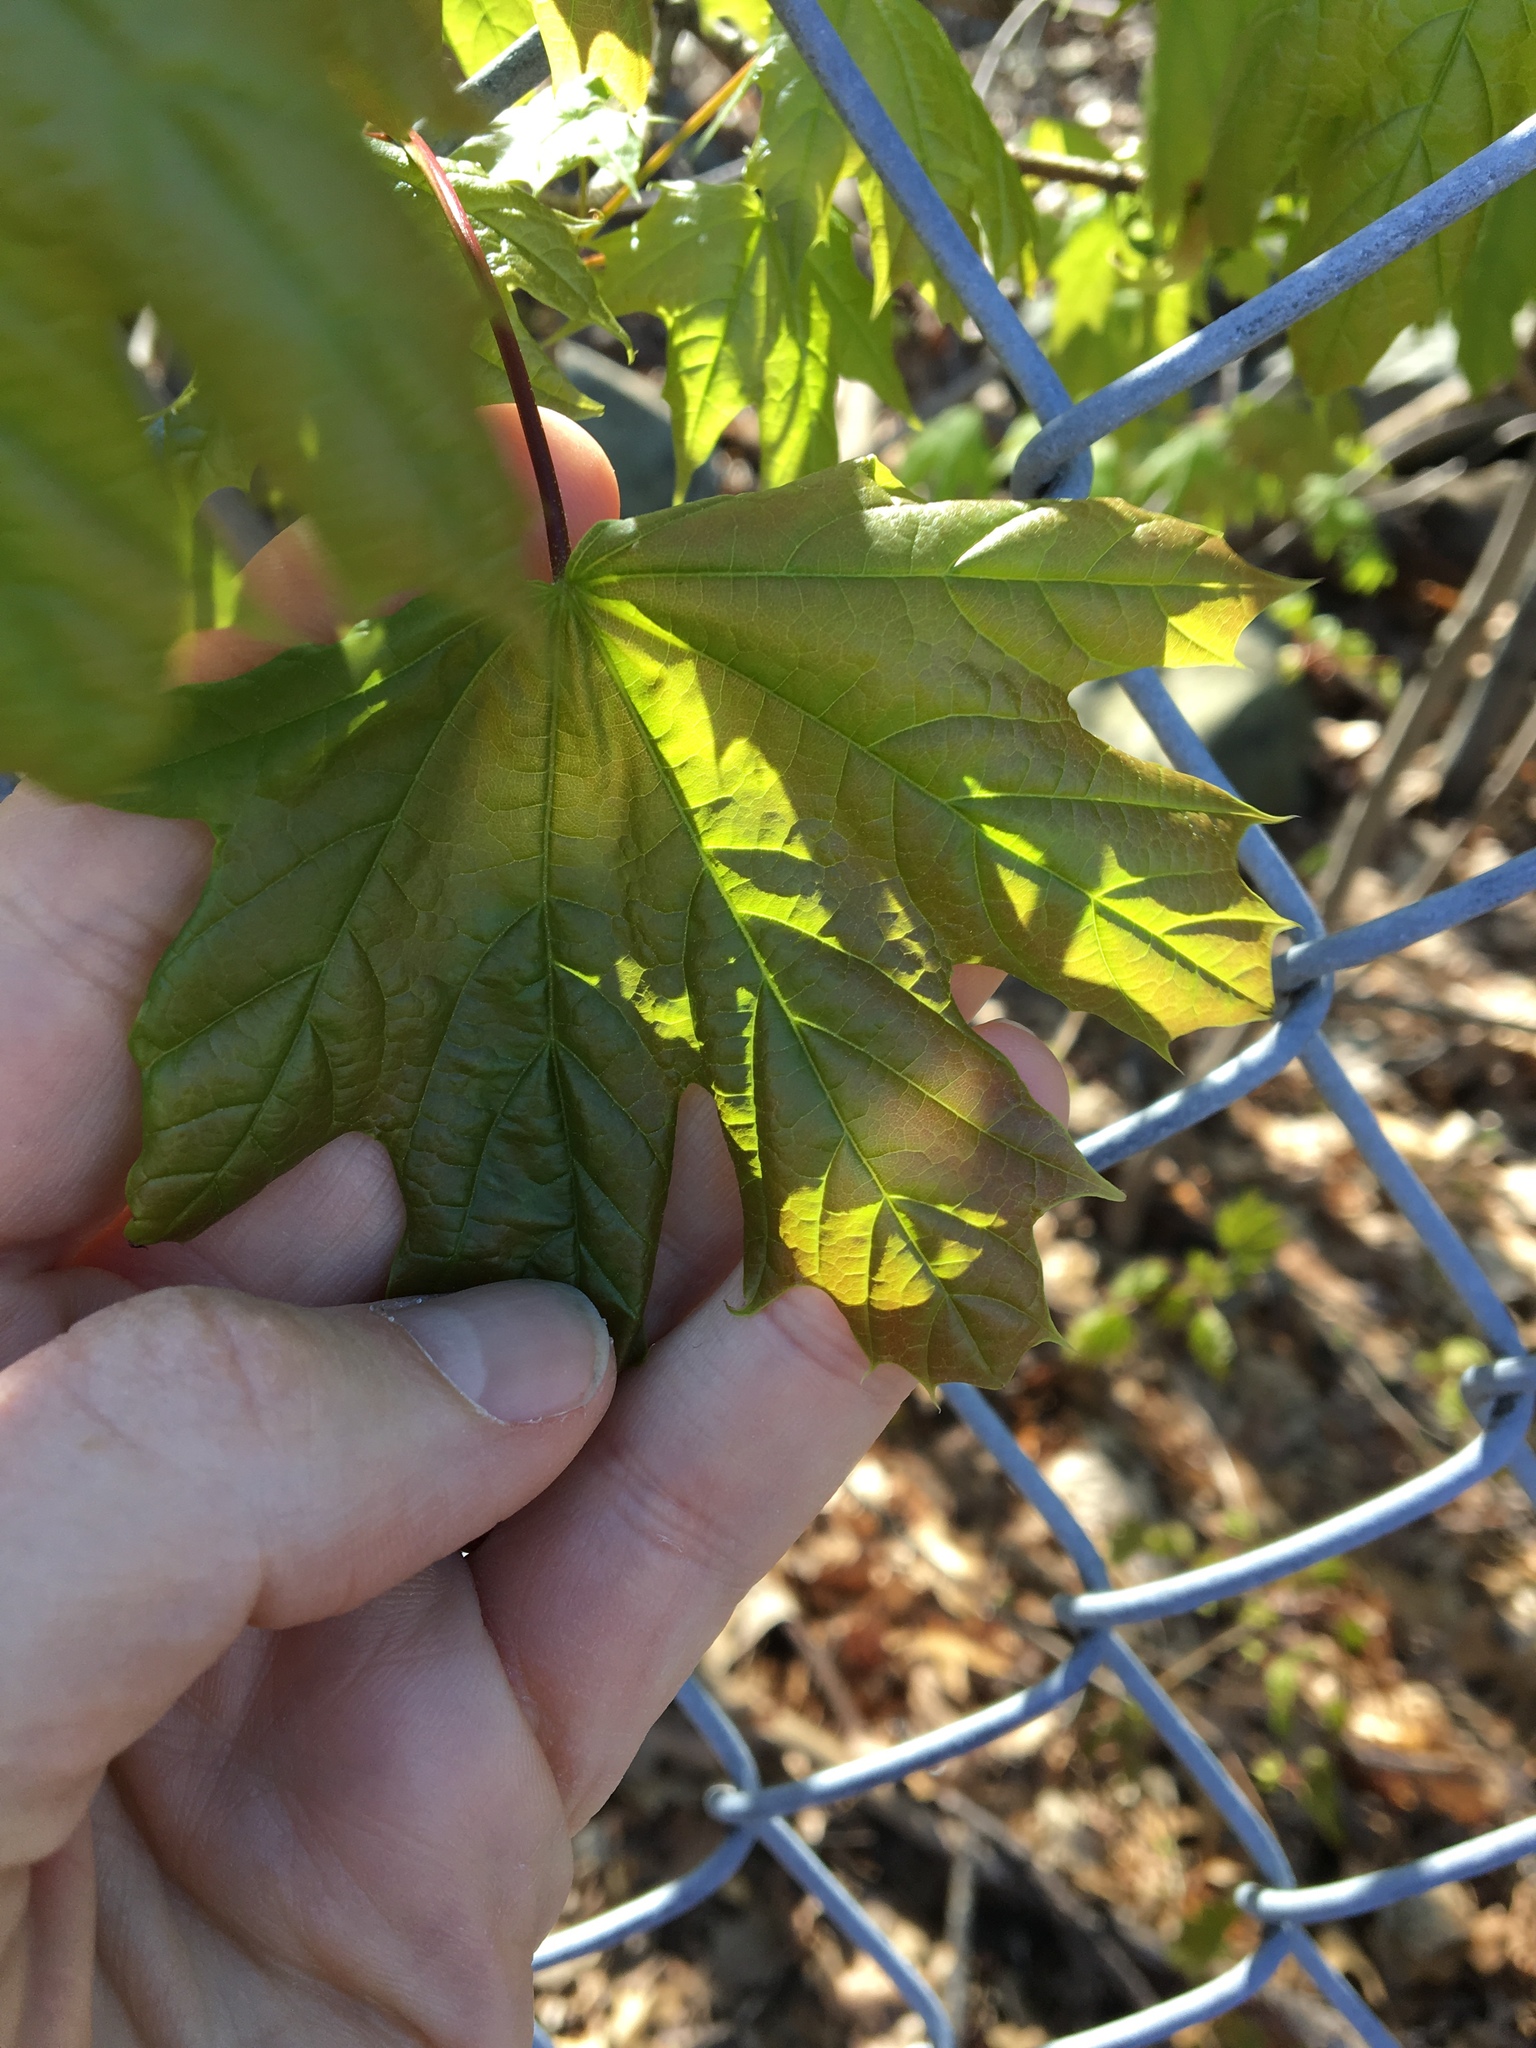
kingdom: Plantae
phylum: Tracheophyta
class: Magnoliopsida
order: Sapindales
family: Sapindaceae
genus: Acer
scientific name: Acer platanoides
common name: Norway maple
